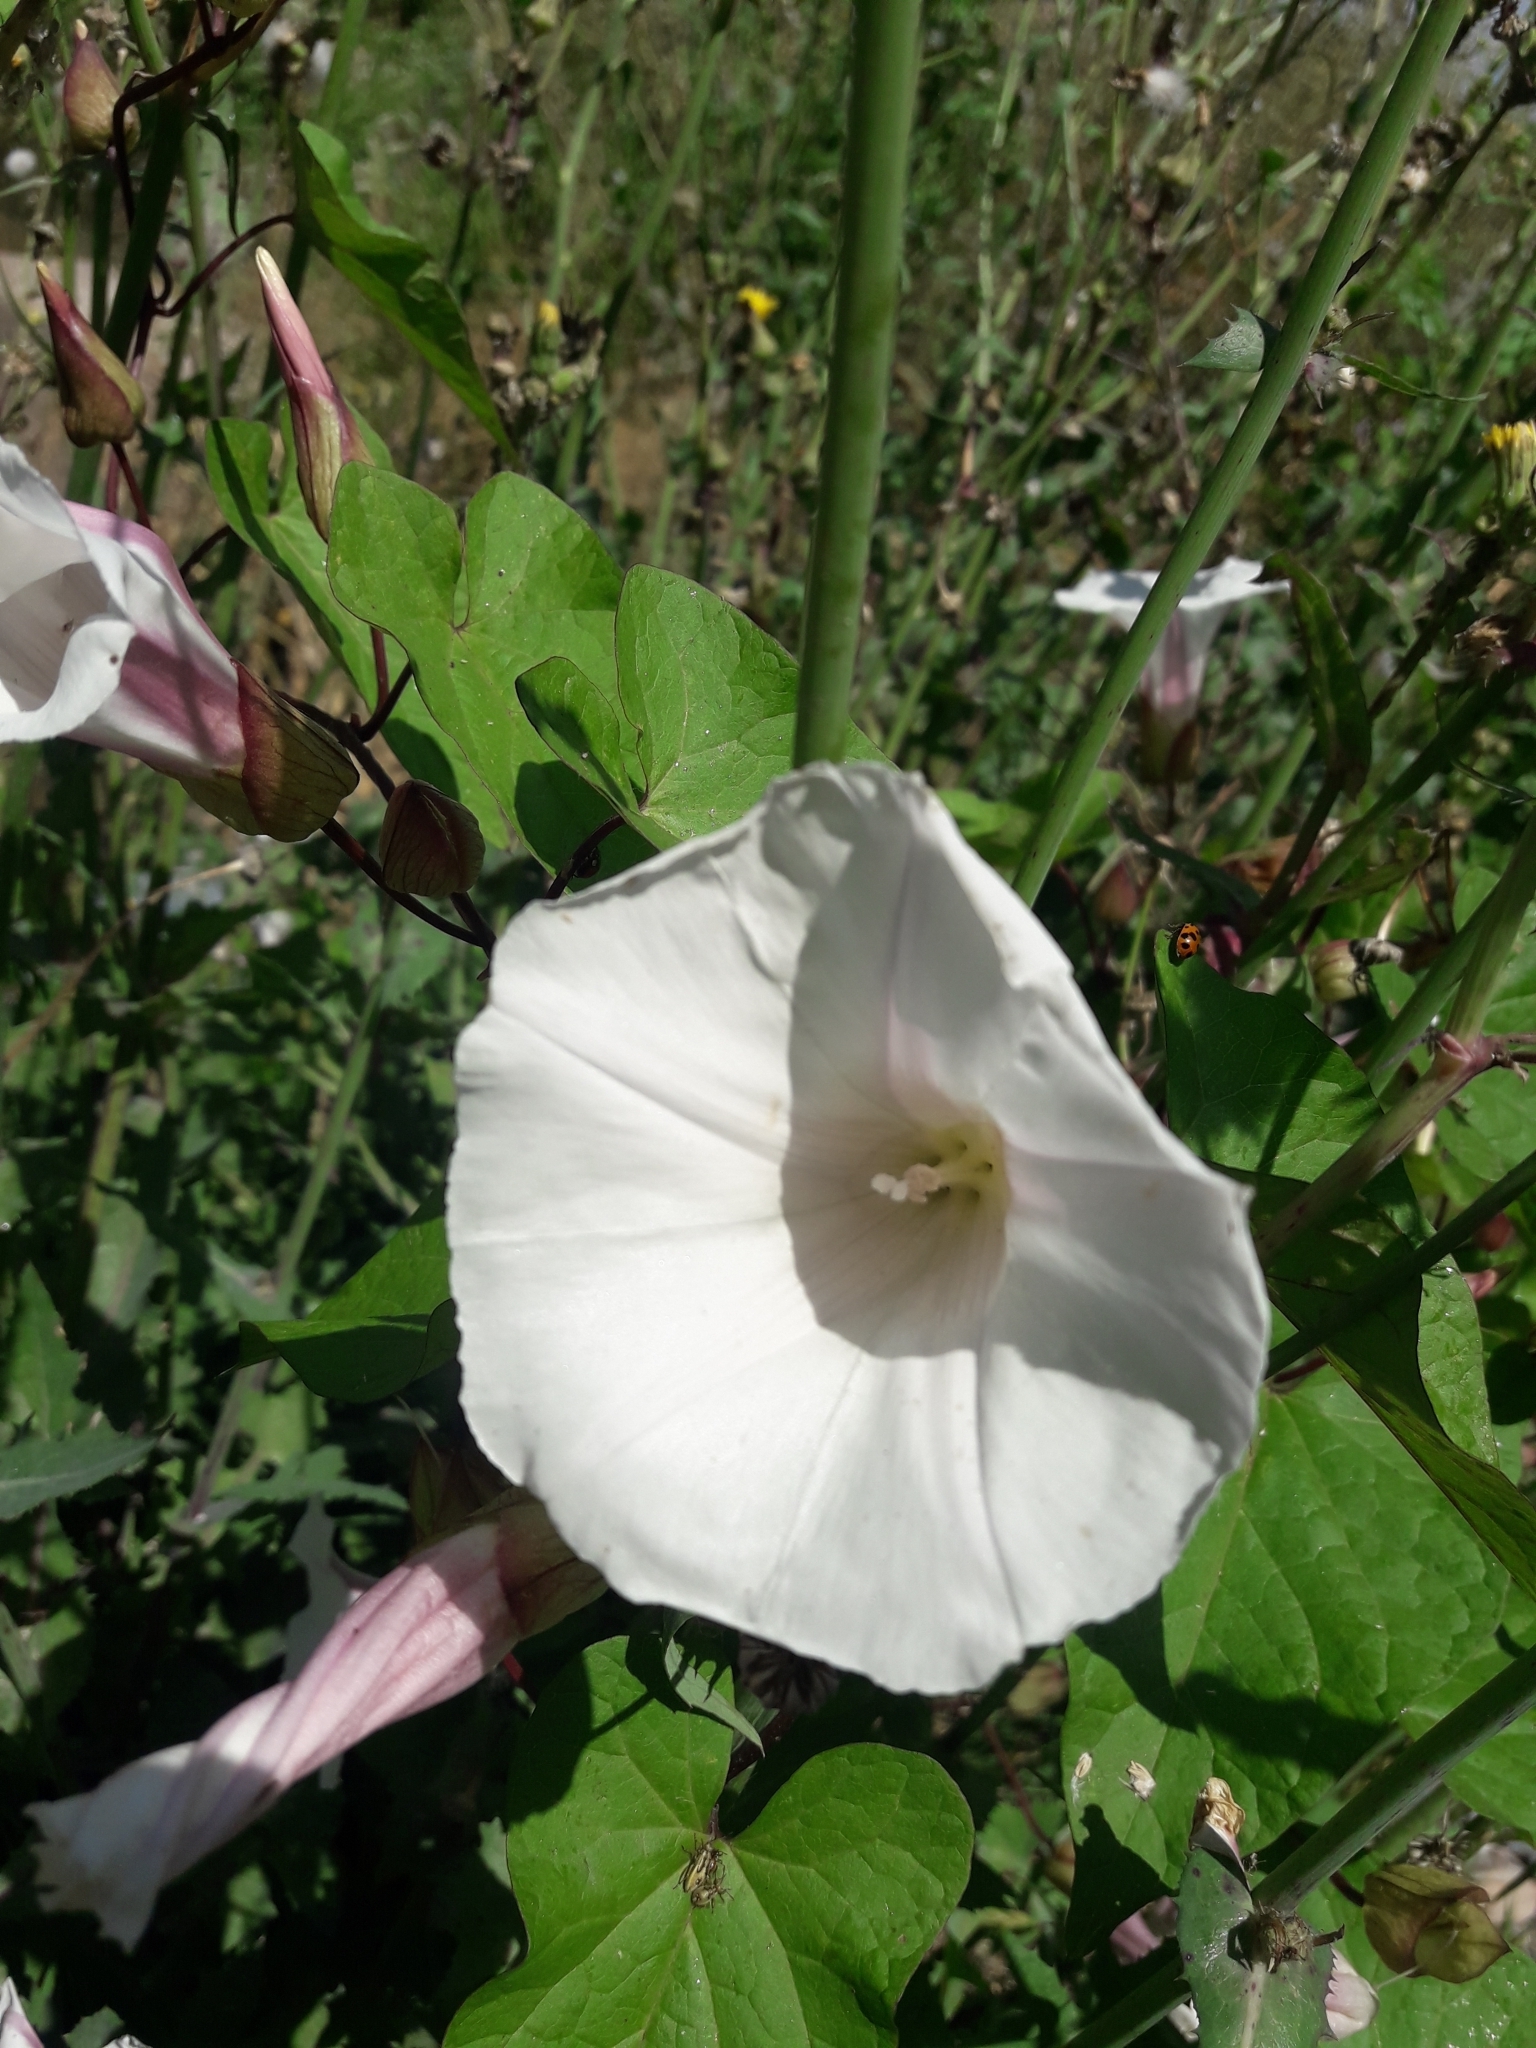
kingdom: Plantae
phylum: Tracheophyta
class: Magnoliopsida
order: Solanales
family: Convolvulaceae
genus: Calystegia
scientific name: Calystegia sepium
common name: Hedge bindweed
